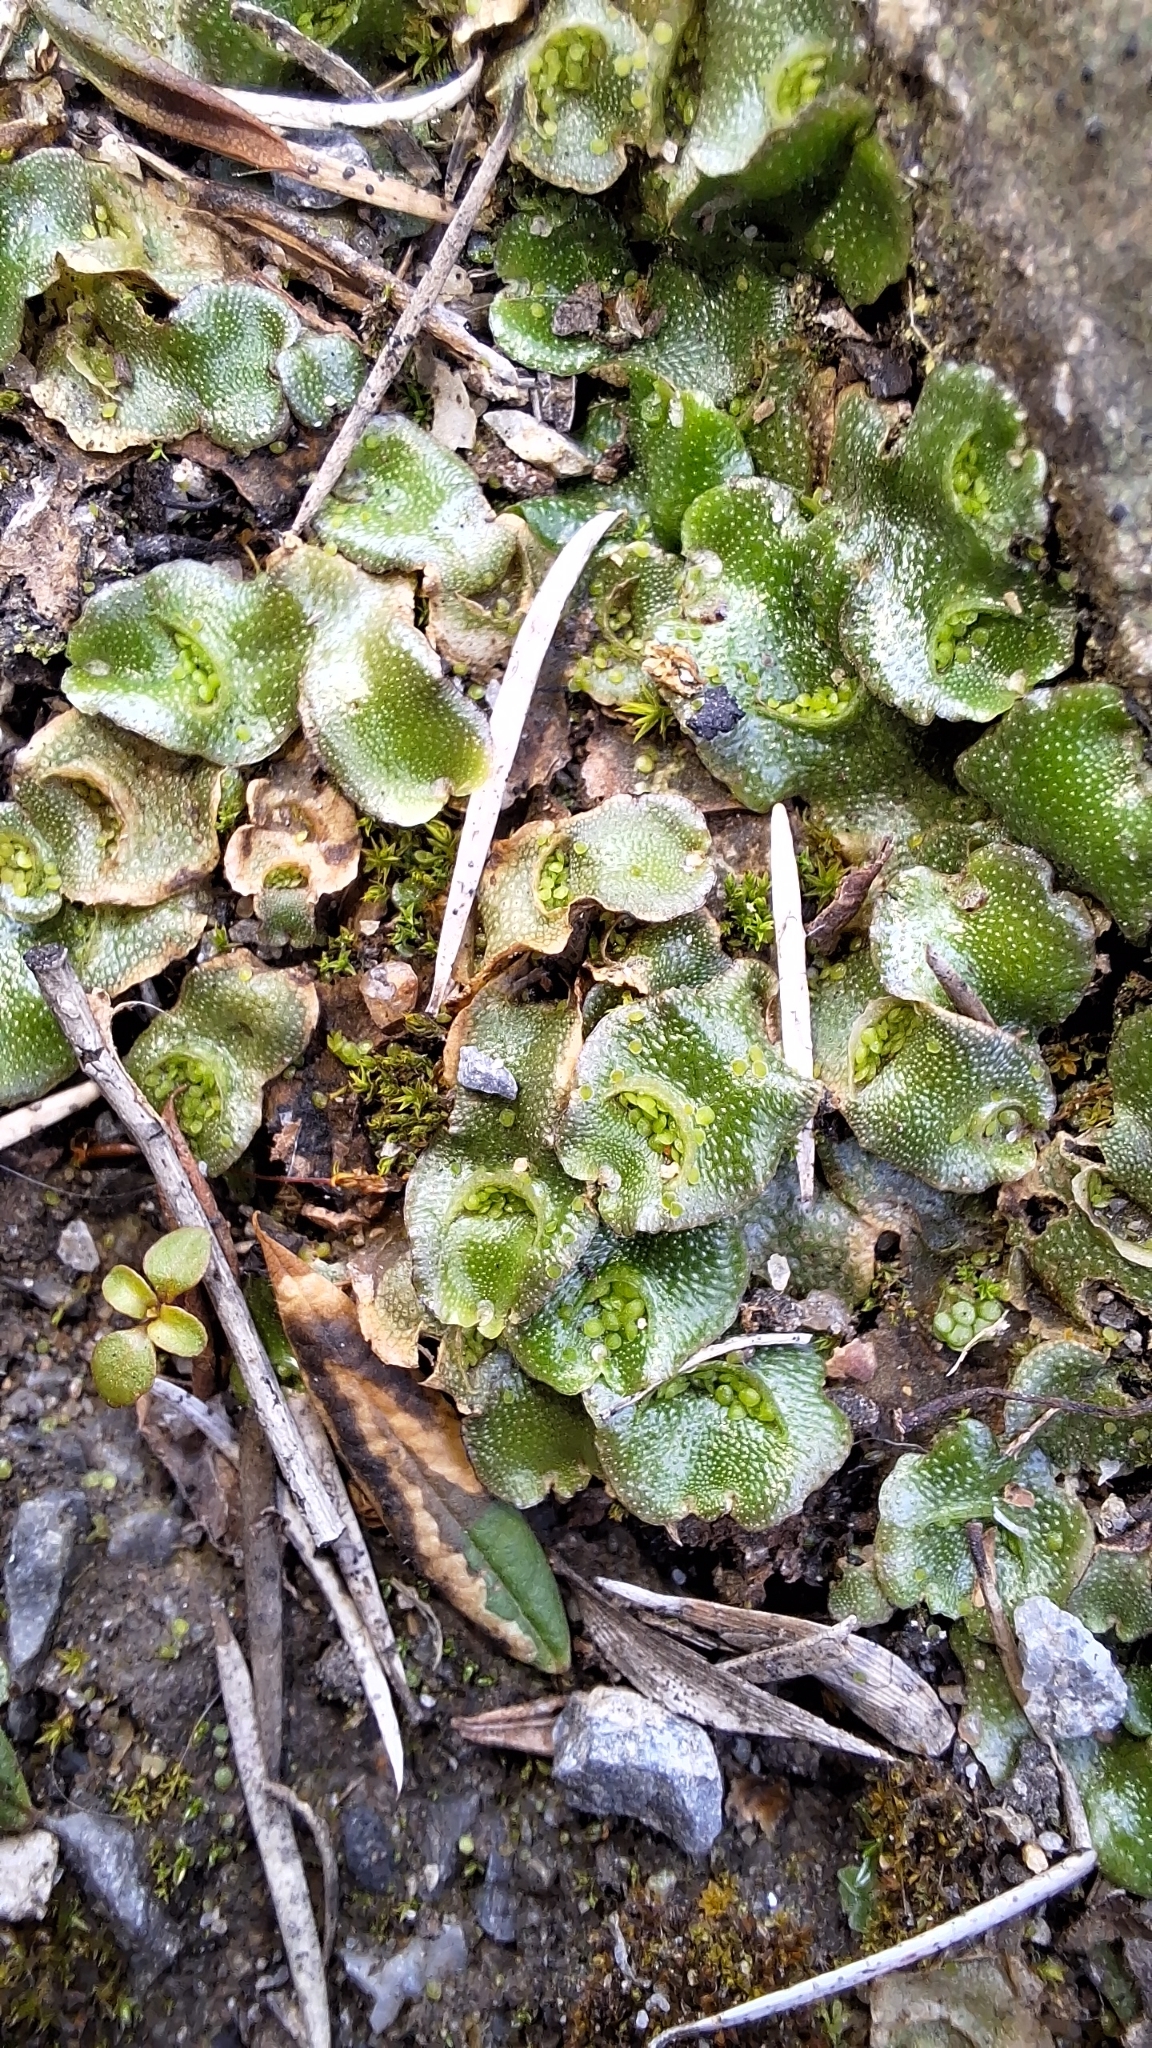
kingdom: Plantae
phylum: Marchantiophyta
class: Marchantiopsida
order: Lunulariales
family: Lunulariaceae
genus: Lunularia
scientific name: Lunularia cruciata
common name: Crescent-cup liverwort
